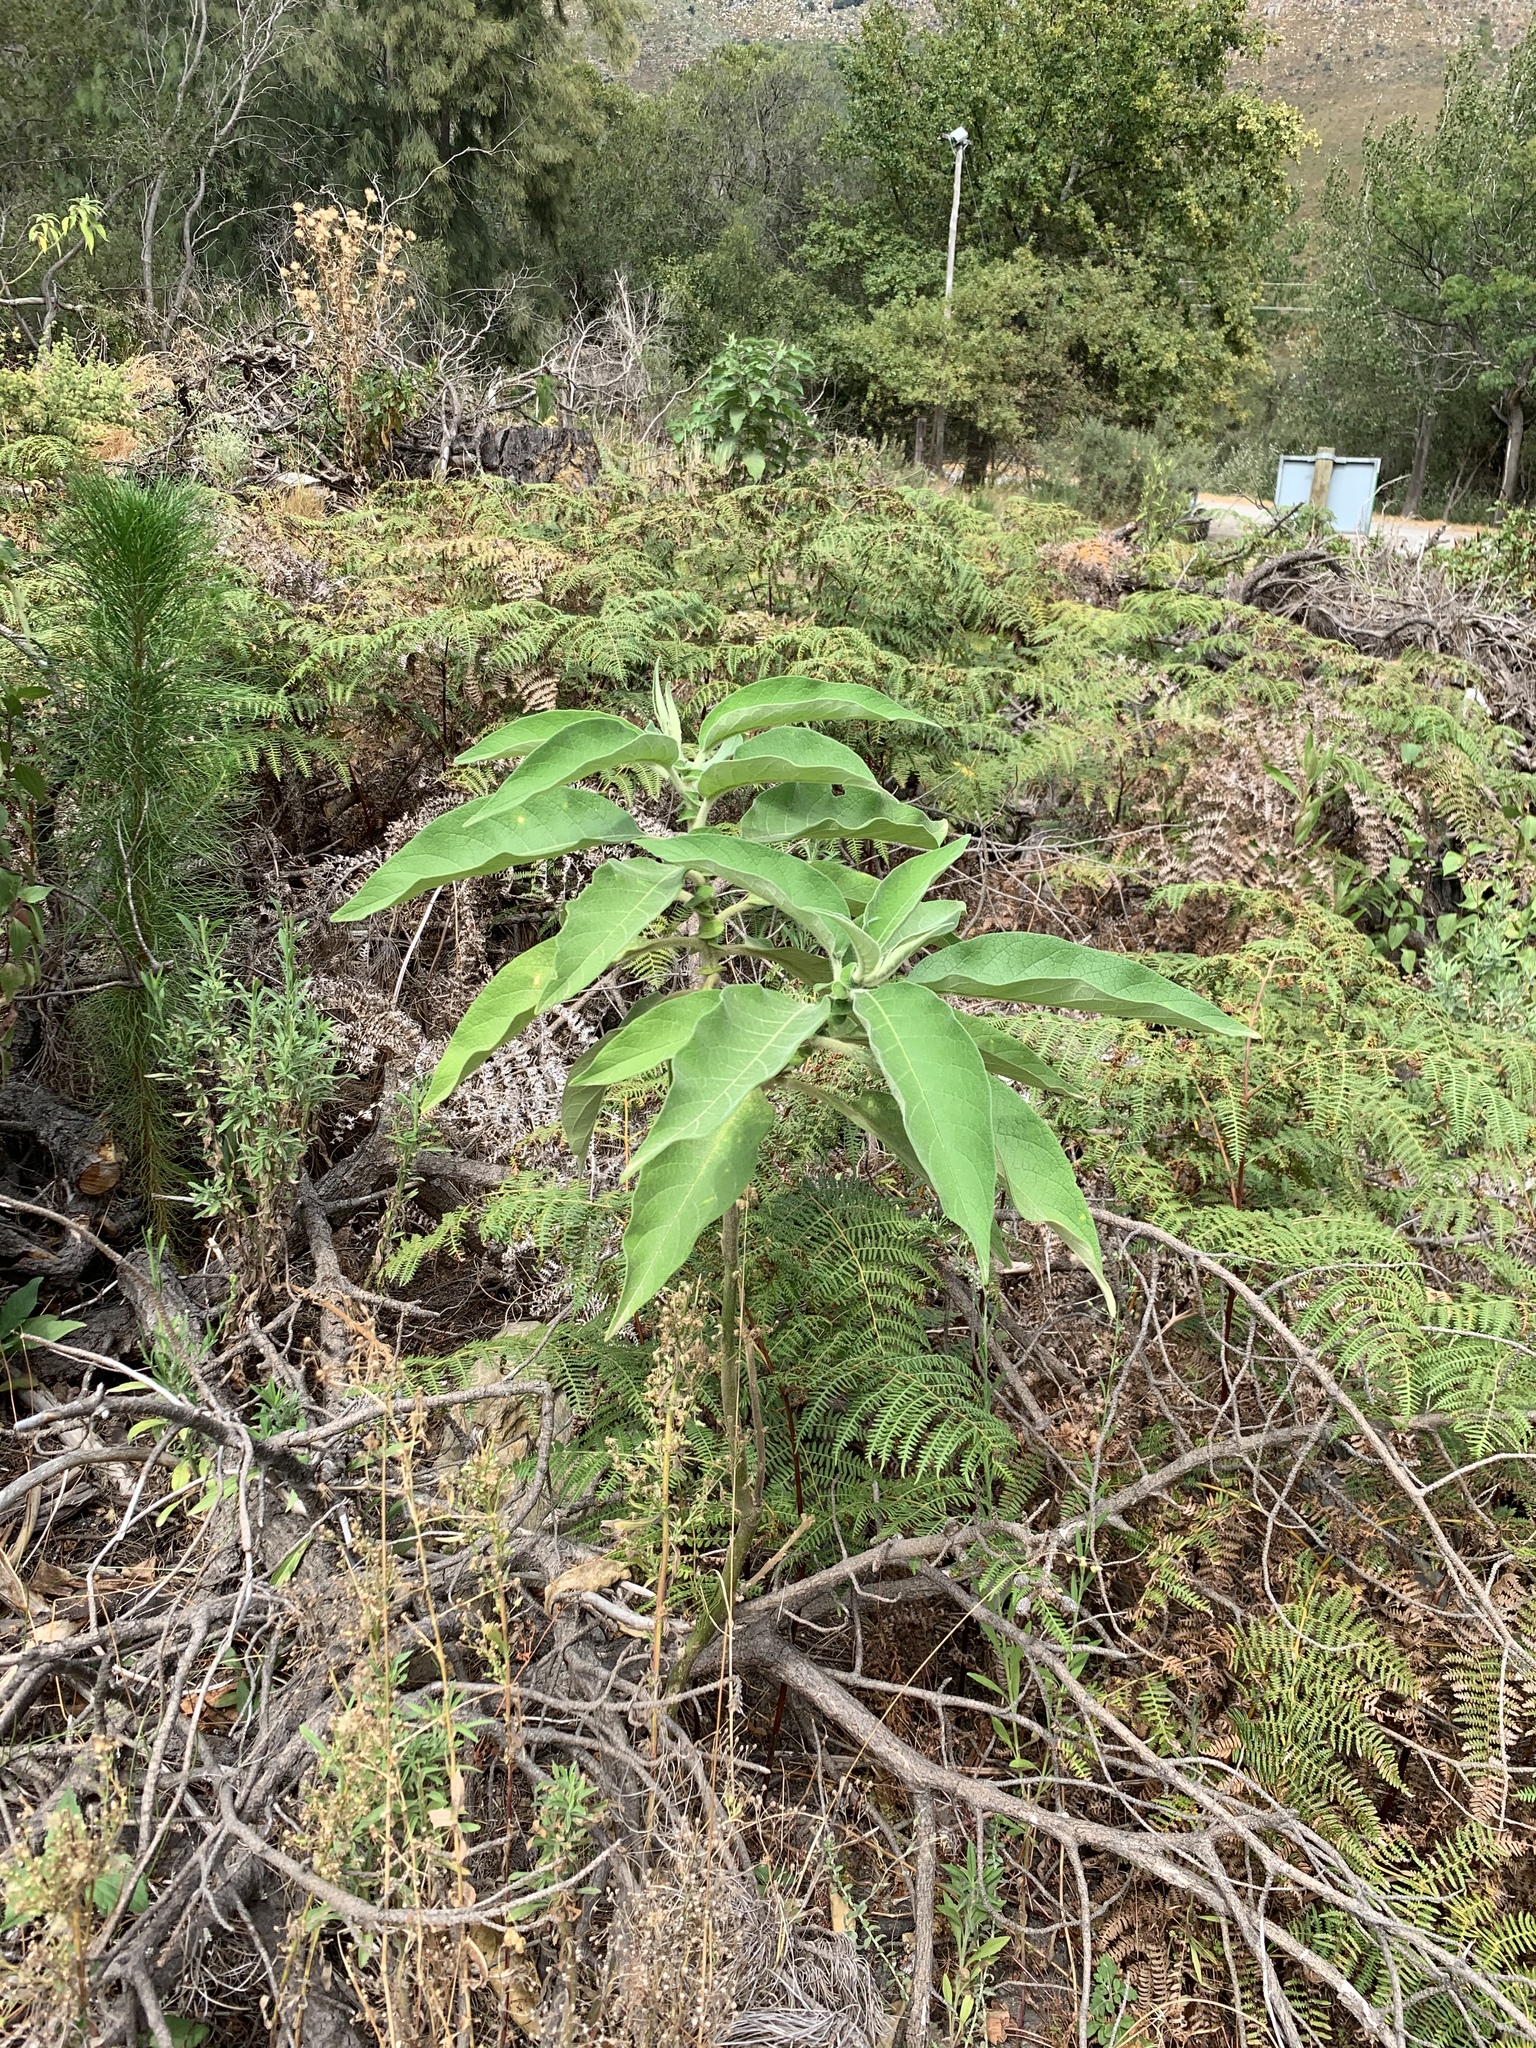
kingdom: Plantae
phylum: Tracheophyta
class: Magnoliopsida
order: Solanales
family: Solanaceae
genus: Solanum
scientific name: Solanum mauritianum
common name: Earleaf nightshade
